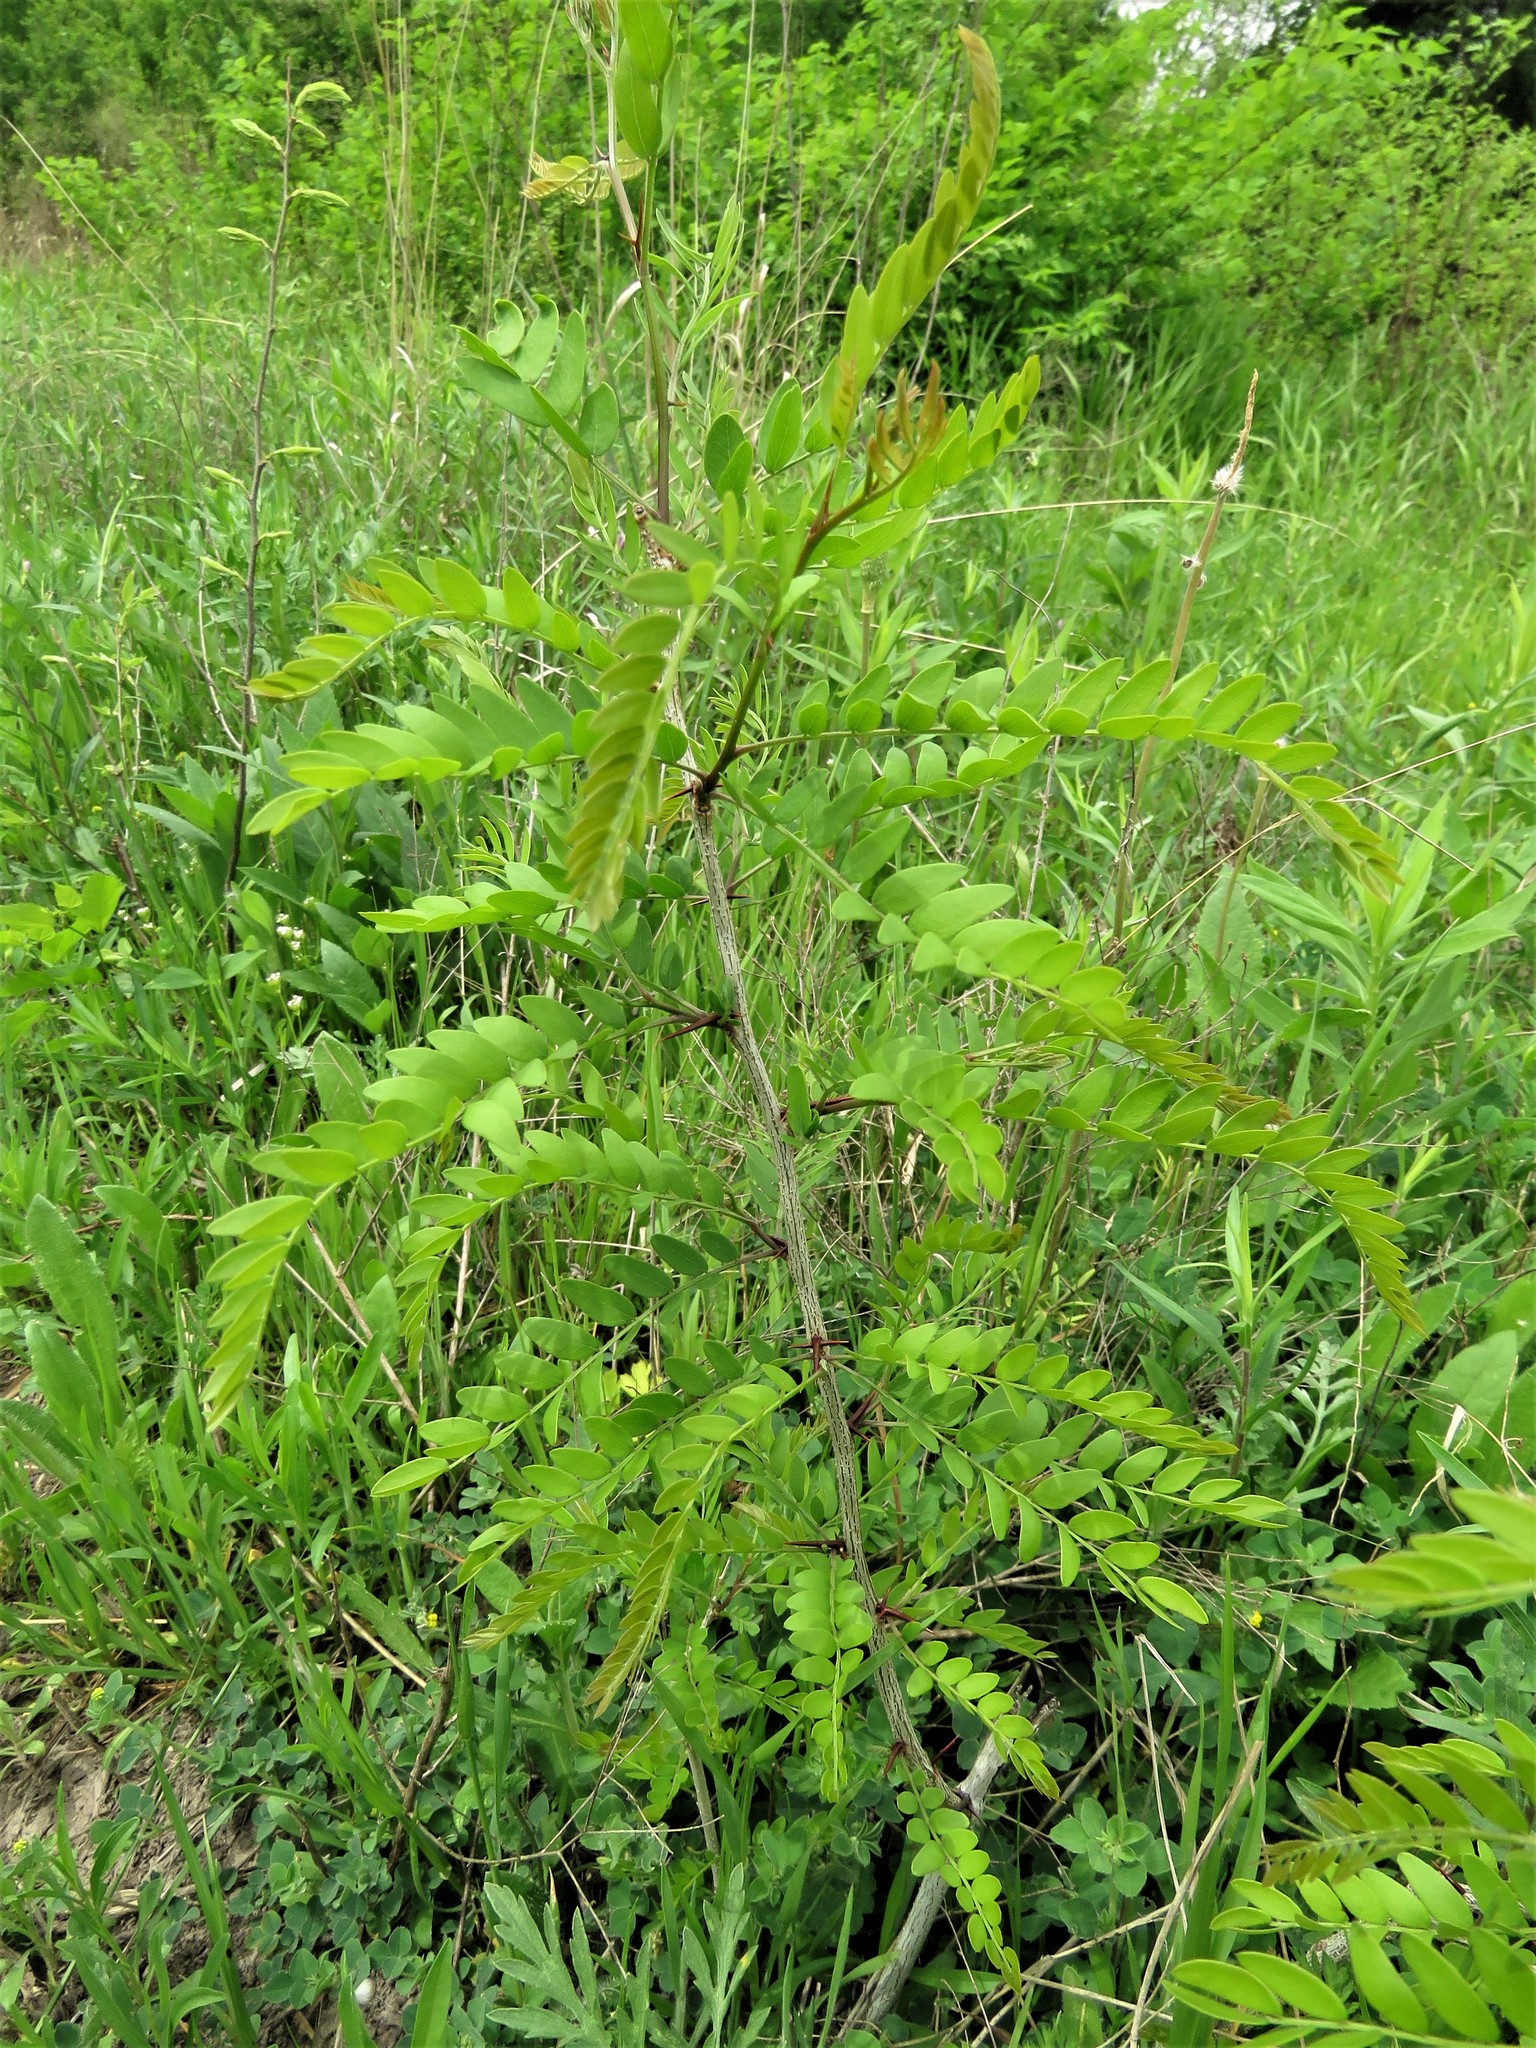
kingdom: Plantae
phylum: Tracheophyta
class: Magnoliopsida
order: Fabales
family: Fabaceae
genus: Gleditsia
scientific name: Gleditsia triacanthos
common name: Common honeylocust
